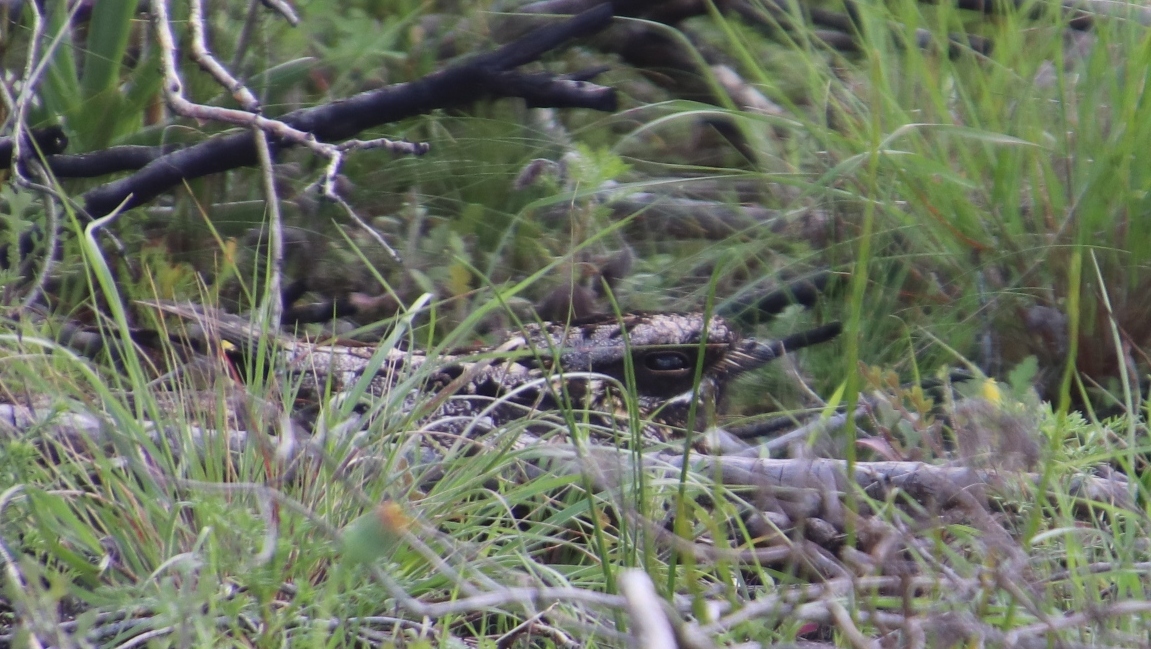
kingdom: Animalia
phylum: Chordata
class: Aves
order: Caprimulgiformes
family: Caprimulgidae
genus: Caprimulgus
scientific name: Caprimulgus pectoralis
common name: Fiery-necked nightjar
